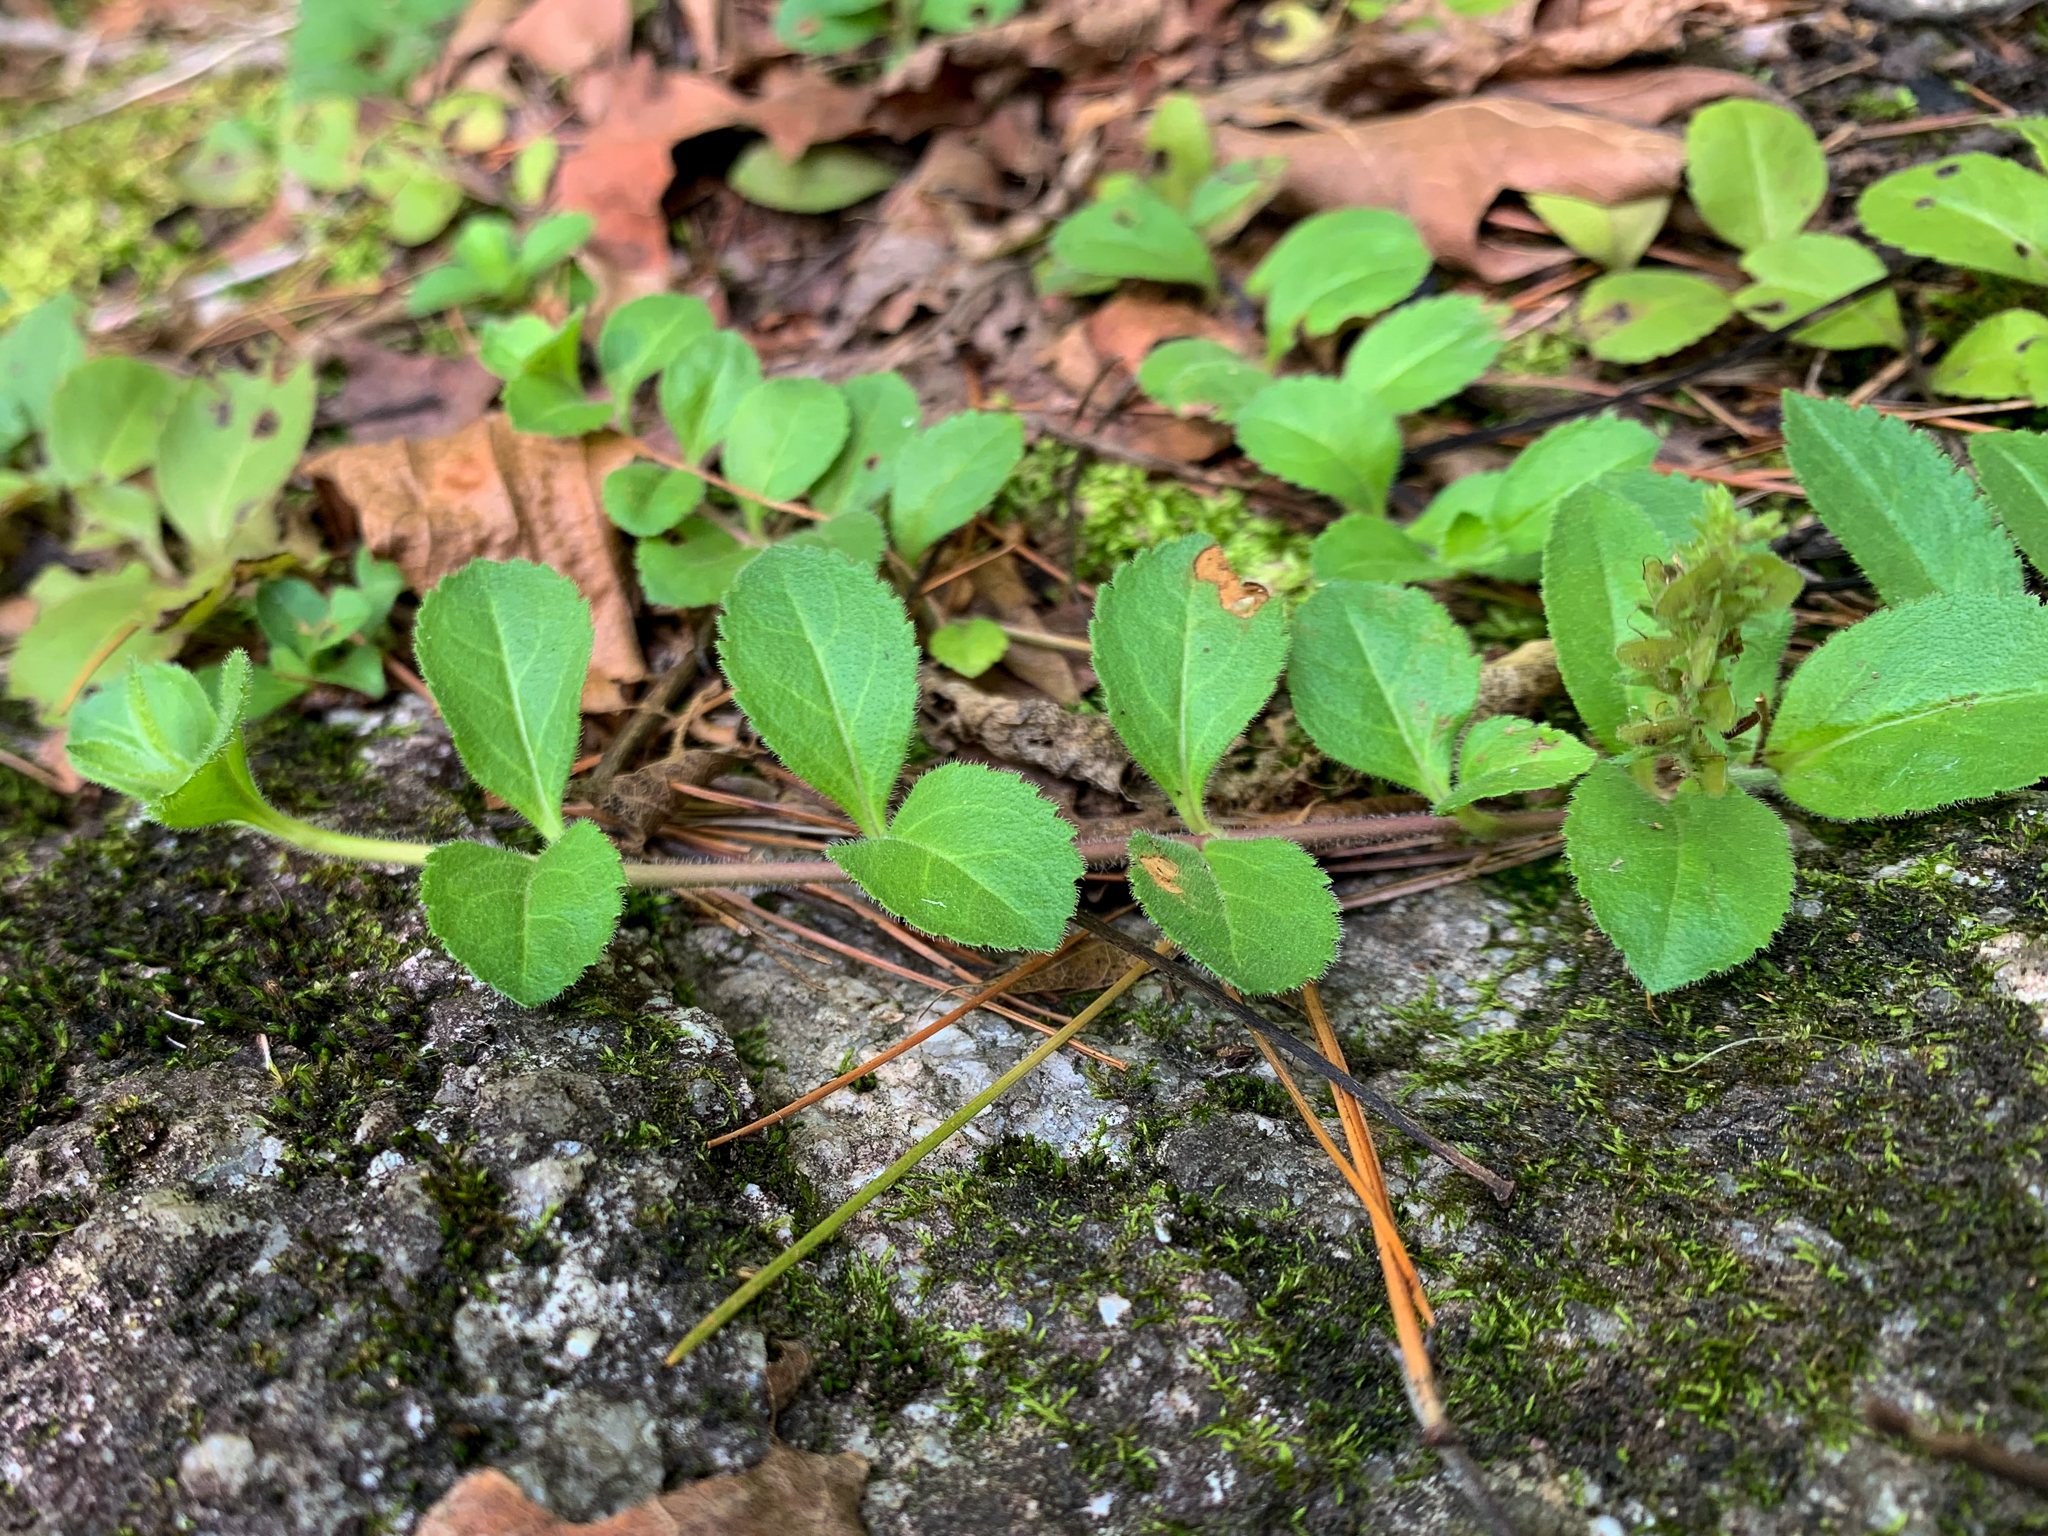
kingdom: Plantae
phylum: Tracheophyta
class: Magnoliopsida
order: Lamiales
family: Plantaginaceae
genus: Veronica
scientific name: Veronica officinalis
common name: Common speedwell
